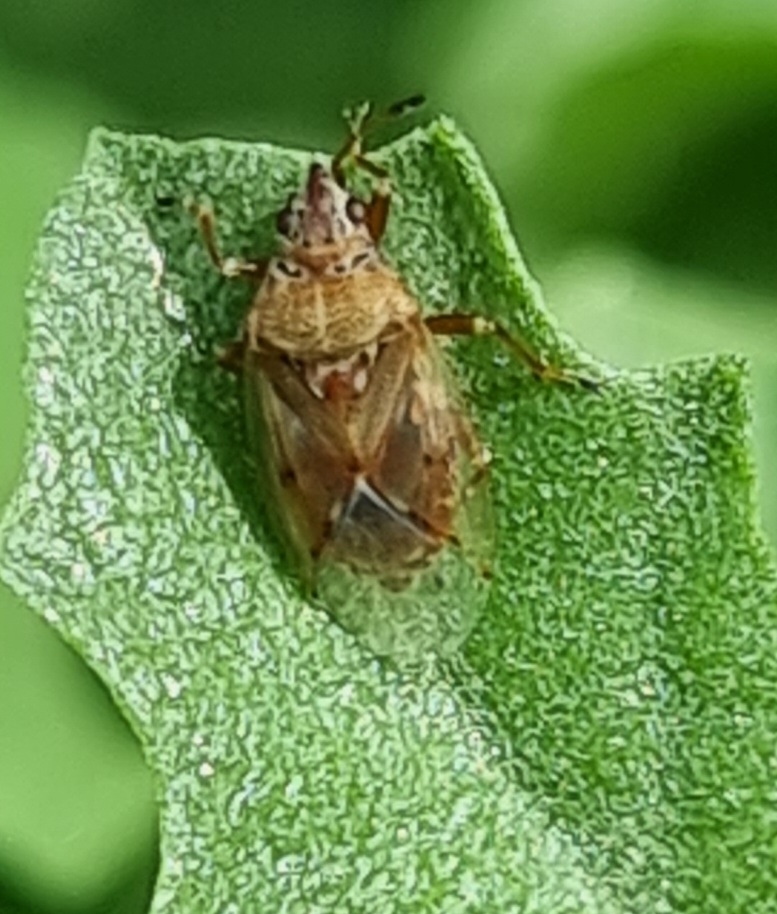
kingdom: Animalia
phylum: Arthropoda
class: Insecta
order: Hemiptera
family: Lygaeidae
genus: Kleidocerys
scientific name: Kleidocerys resedae
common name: Birch catkin bug
